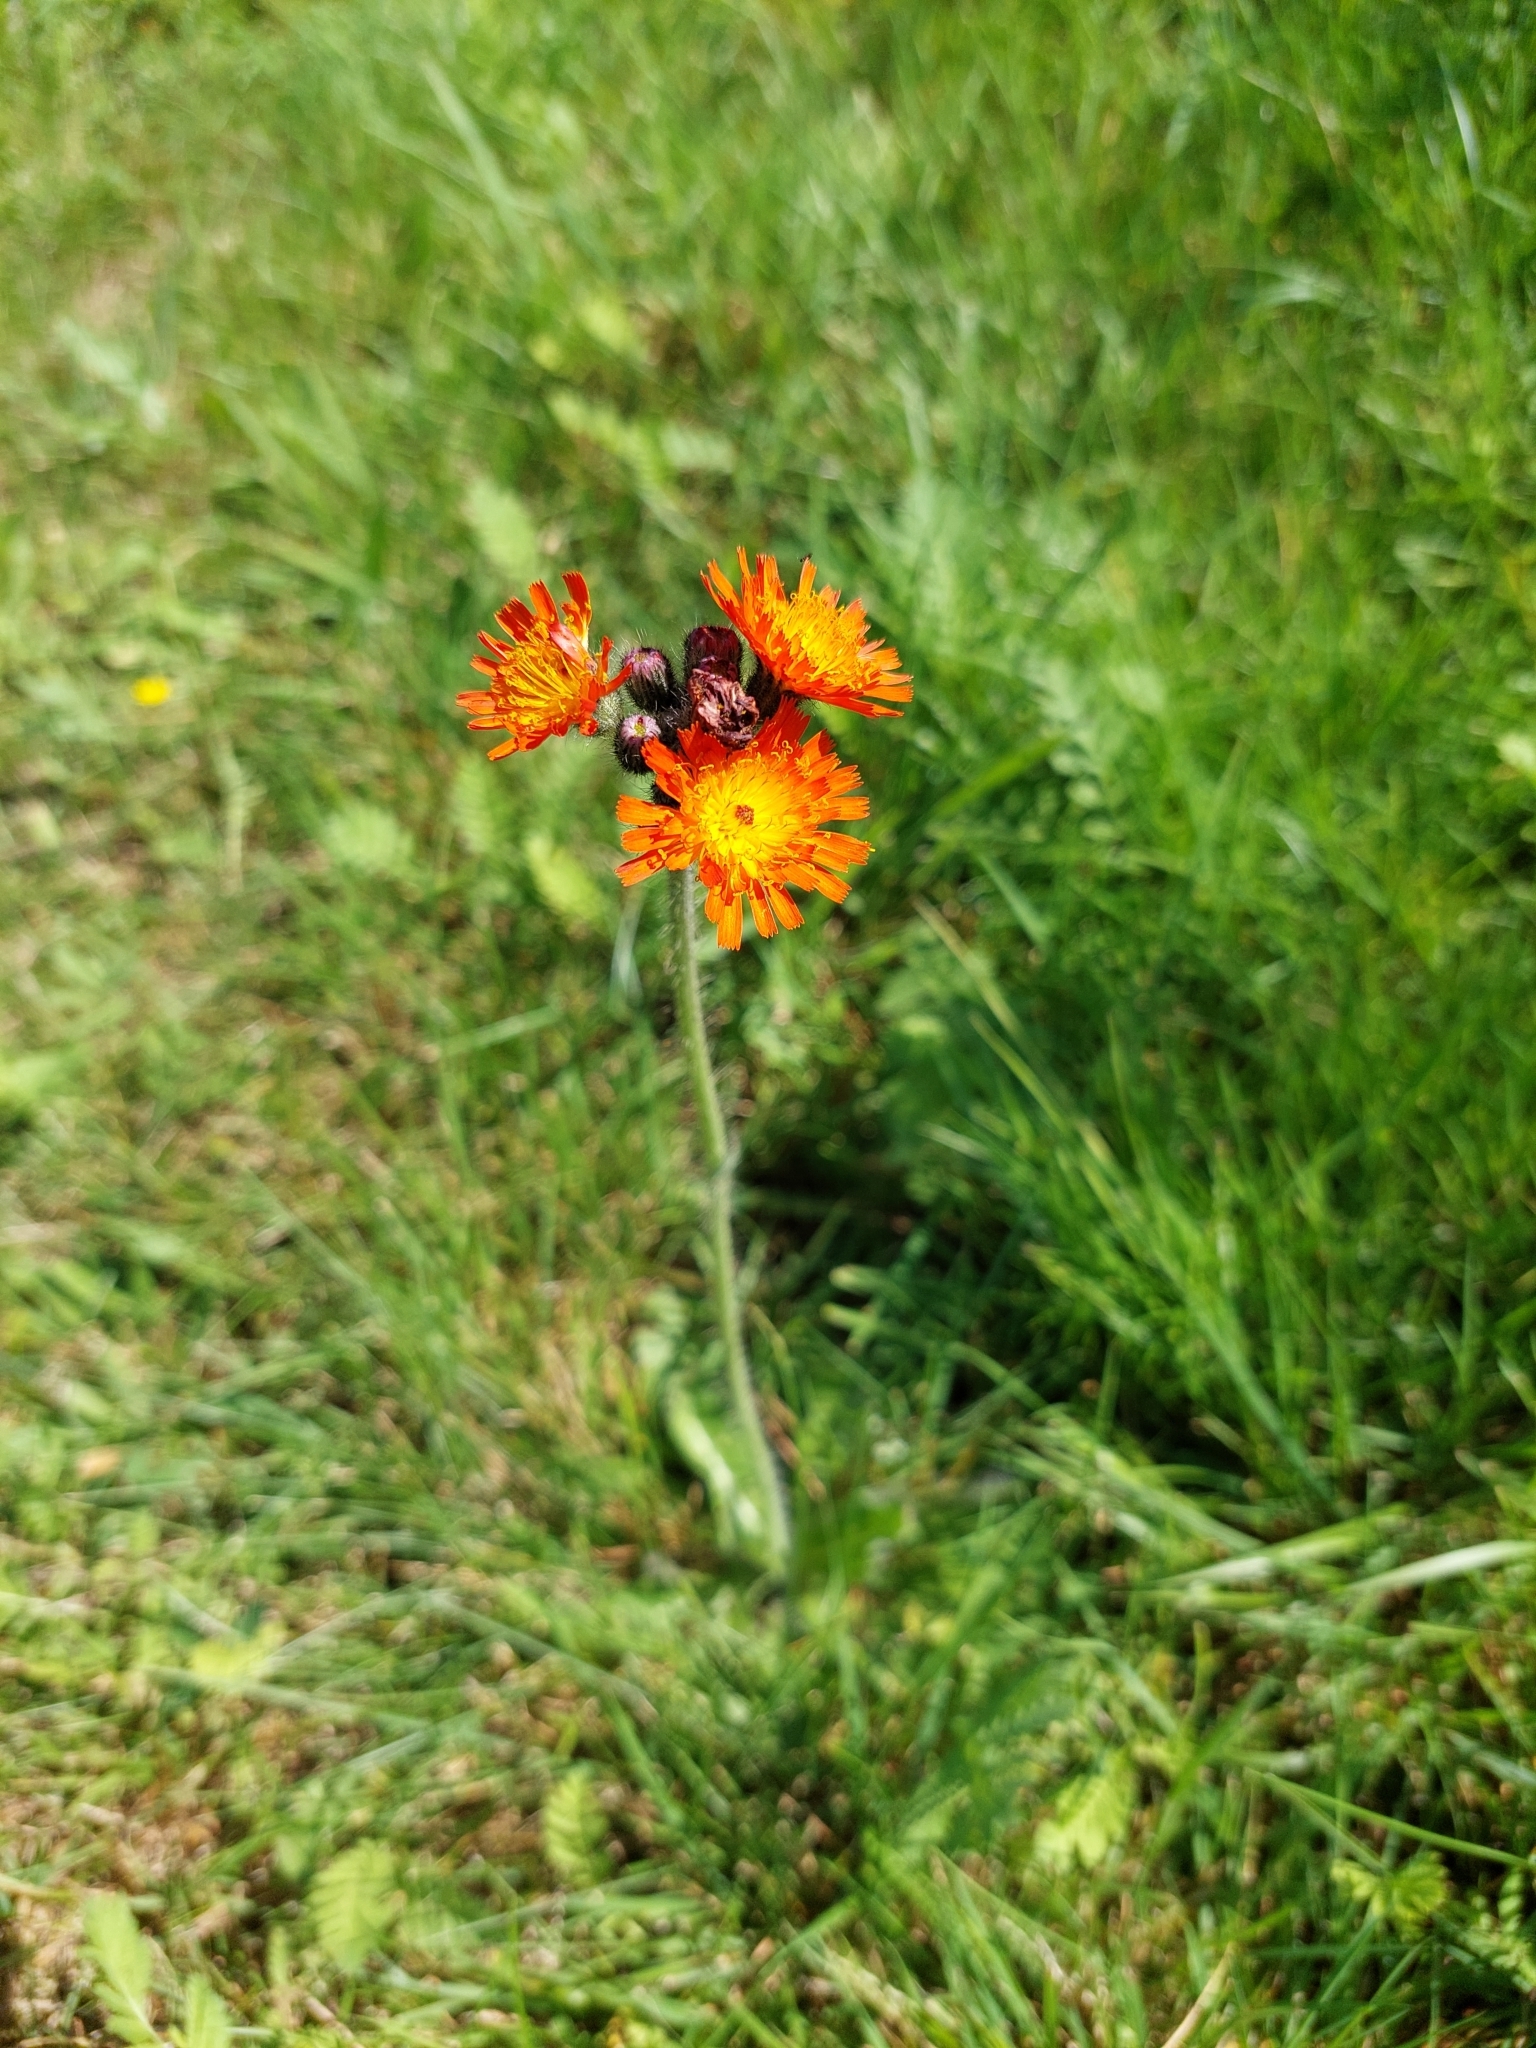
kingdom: Plantae
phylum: Tracheophyta
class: Magnoliopsida
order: Asterales
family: Asteraceae
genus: Pilosella
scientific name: Pilosella aurantiaca
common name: Fox-and-cubs
